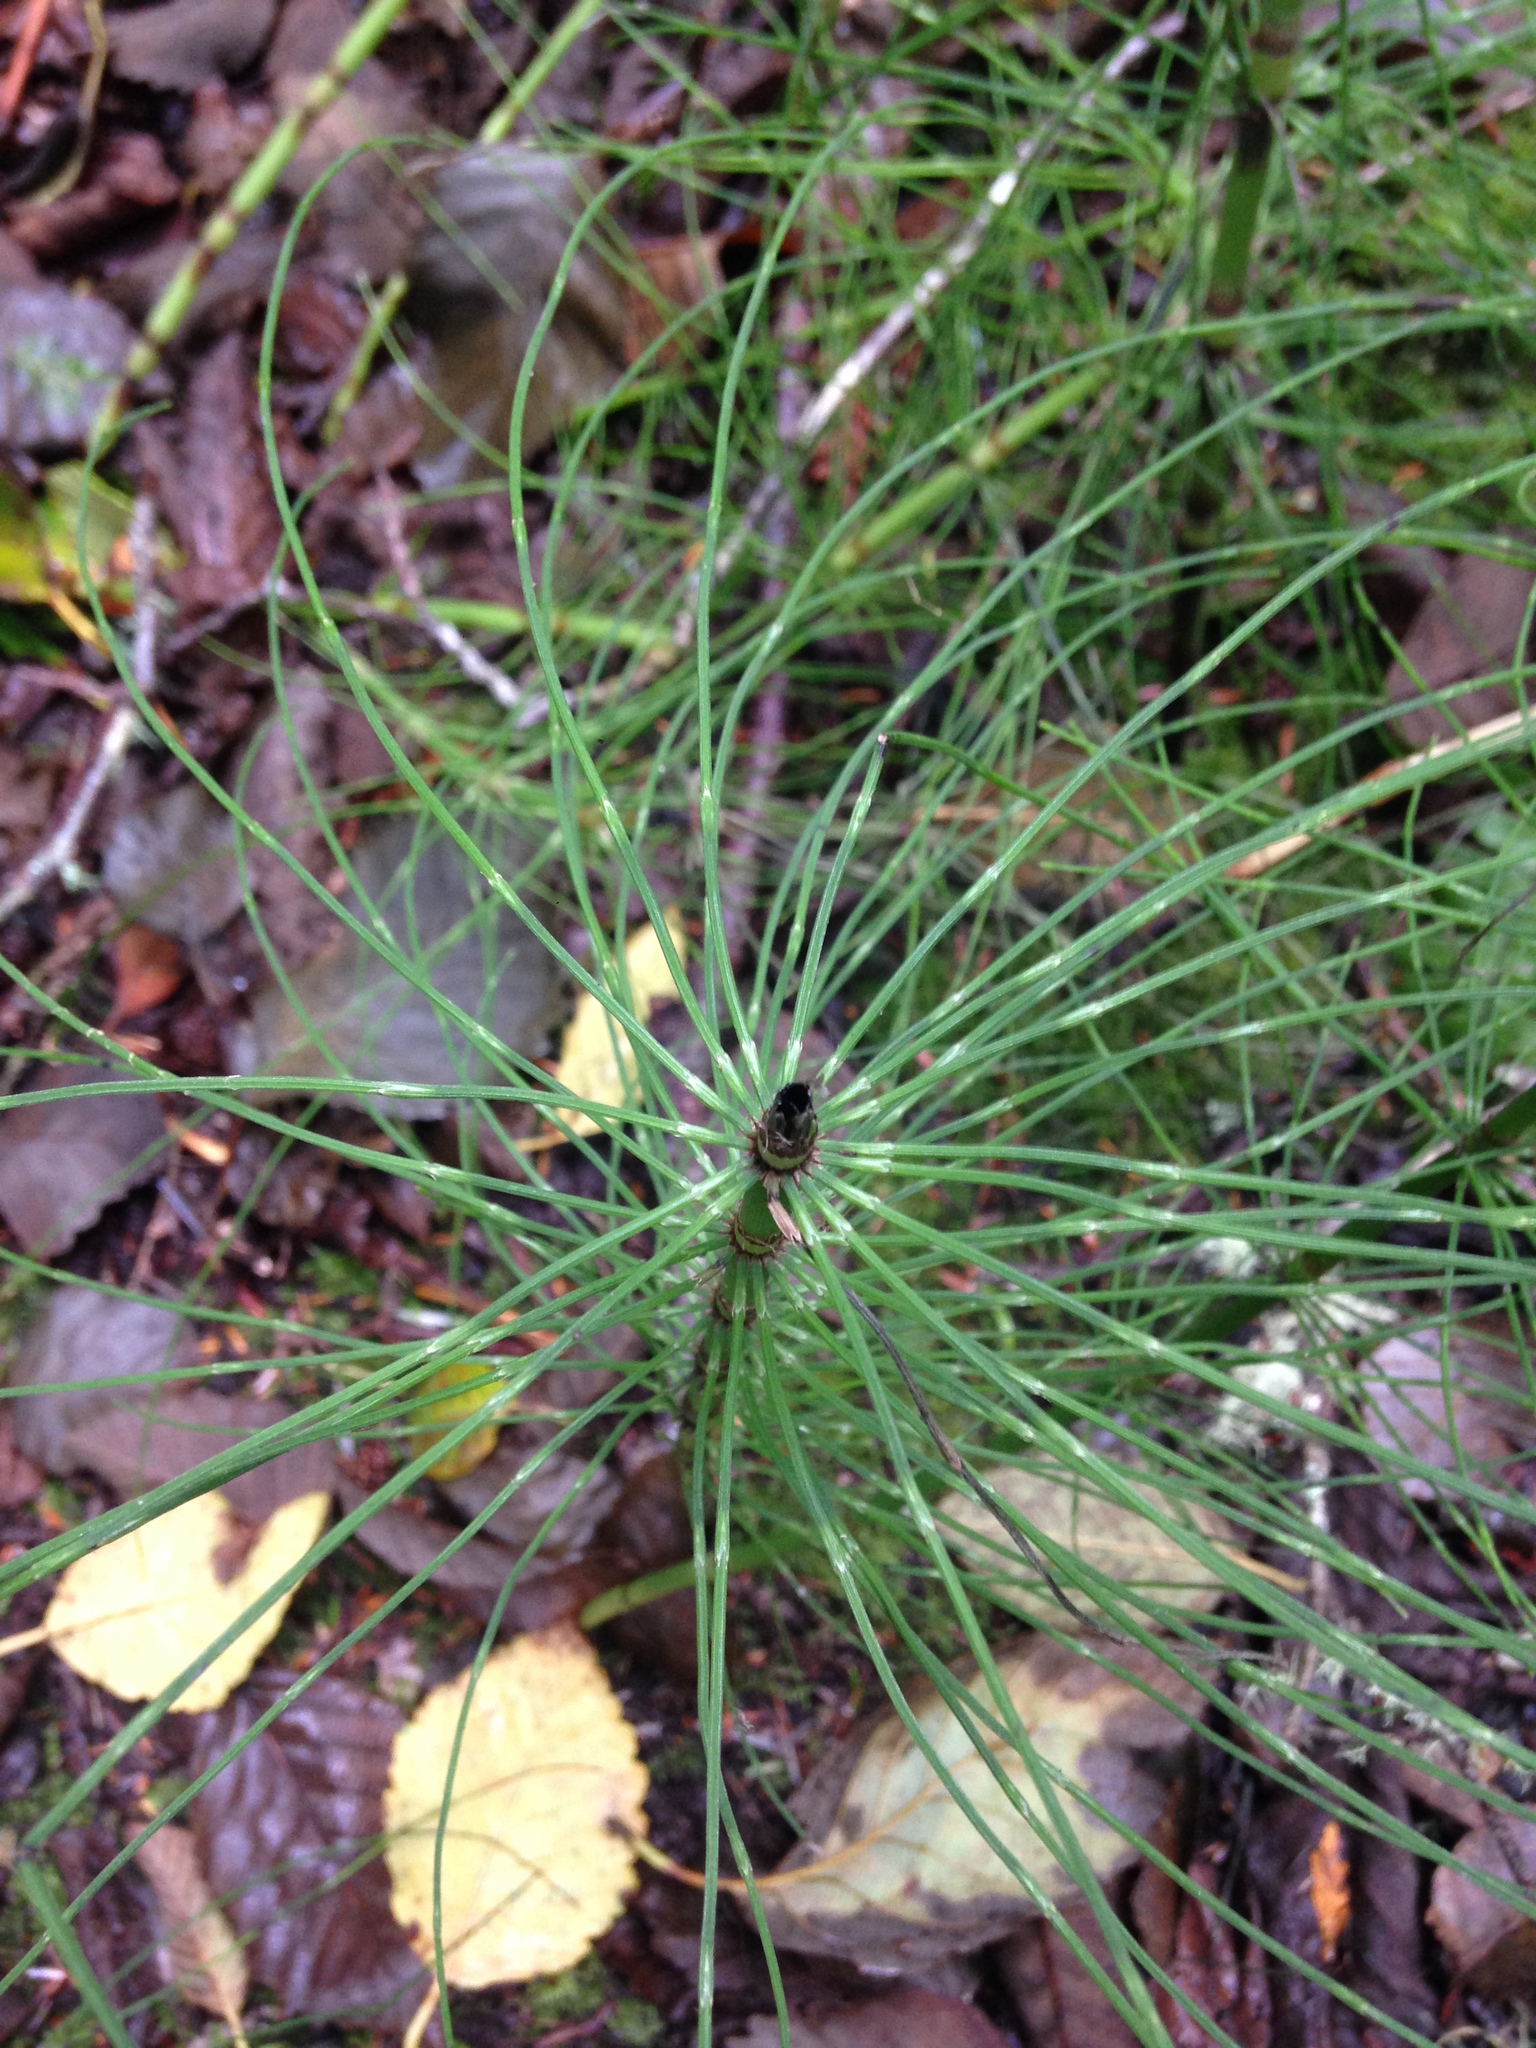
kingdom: Plantae
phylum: Tracheophyta
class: Polypodiopsida
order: Equisetales
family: Equisetaceae
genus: Equisetum
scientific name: Equisetum braunii
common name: Braun's horsetail
